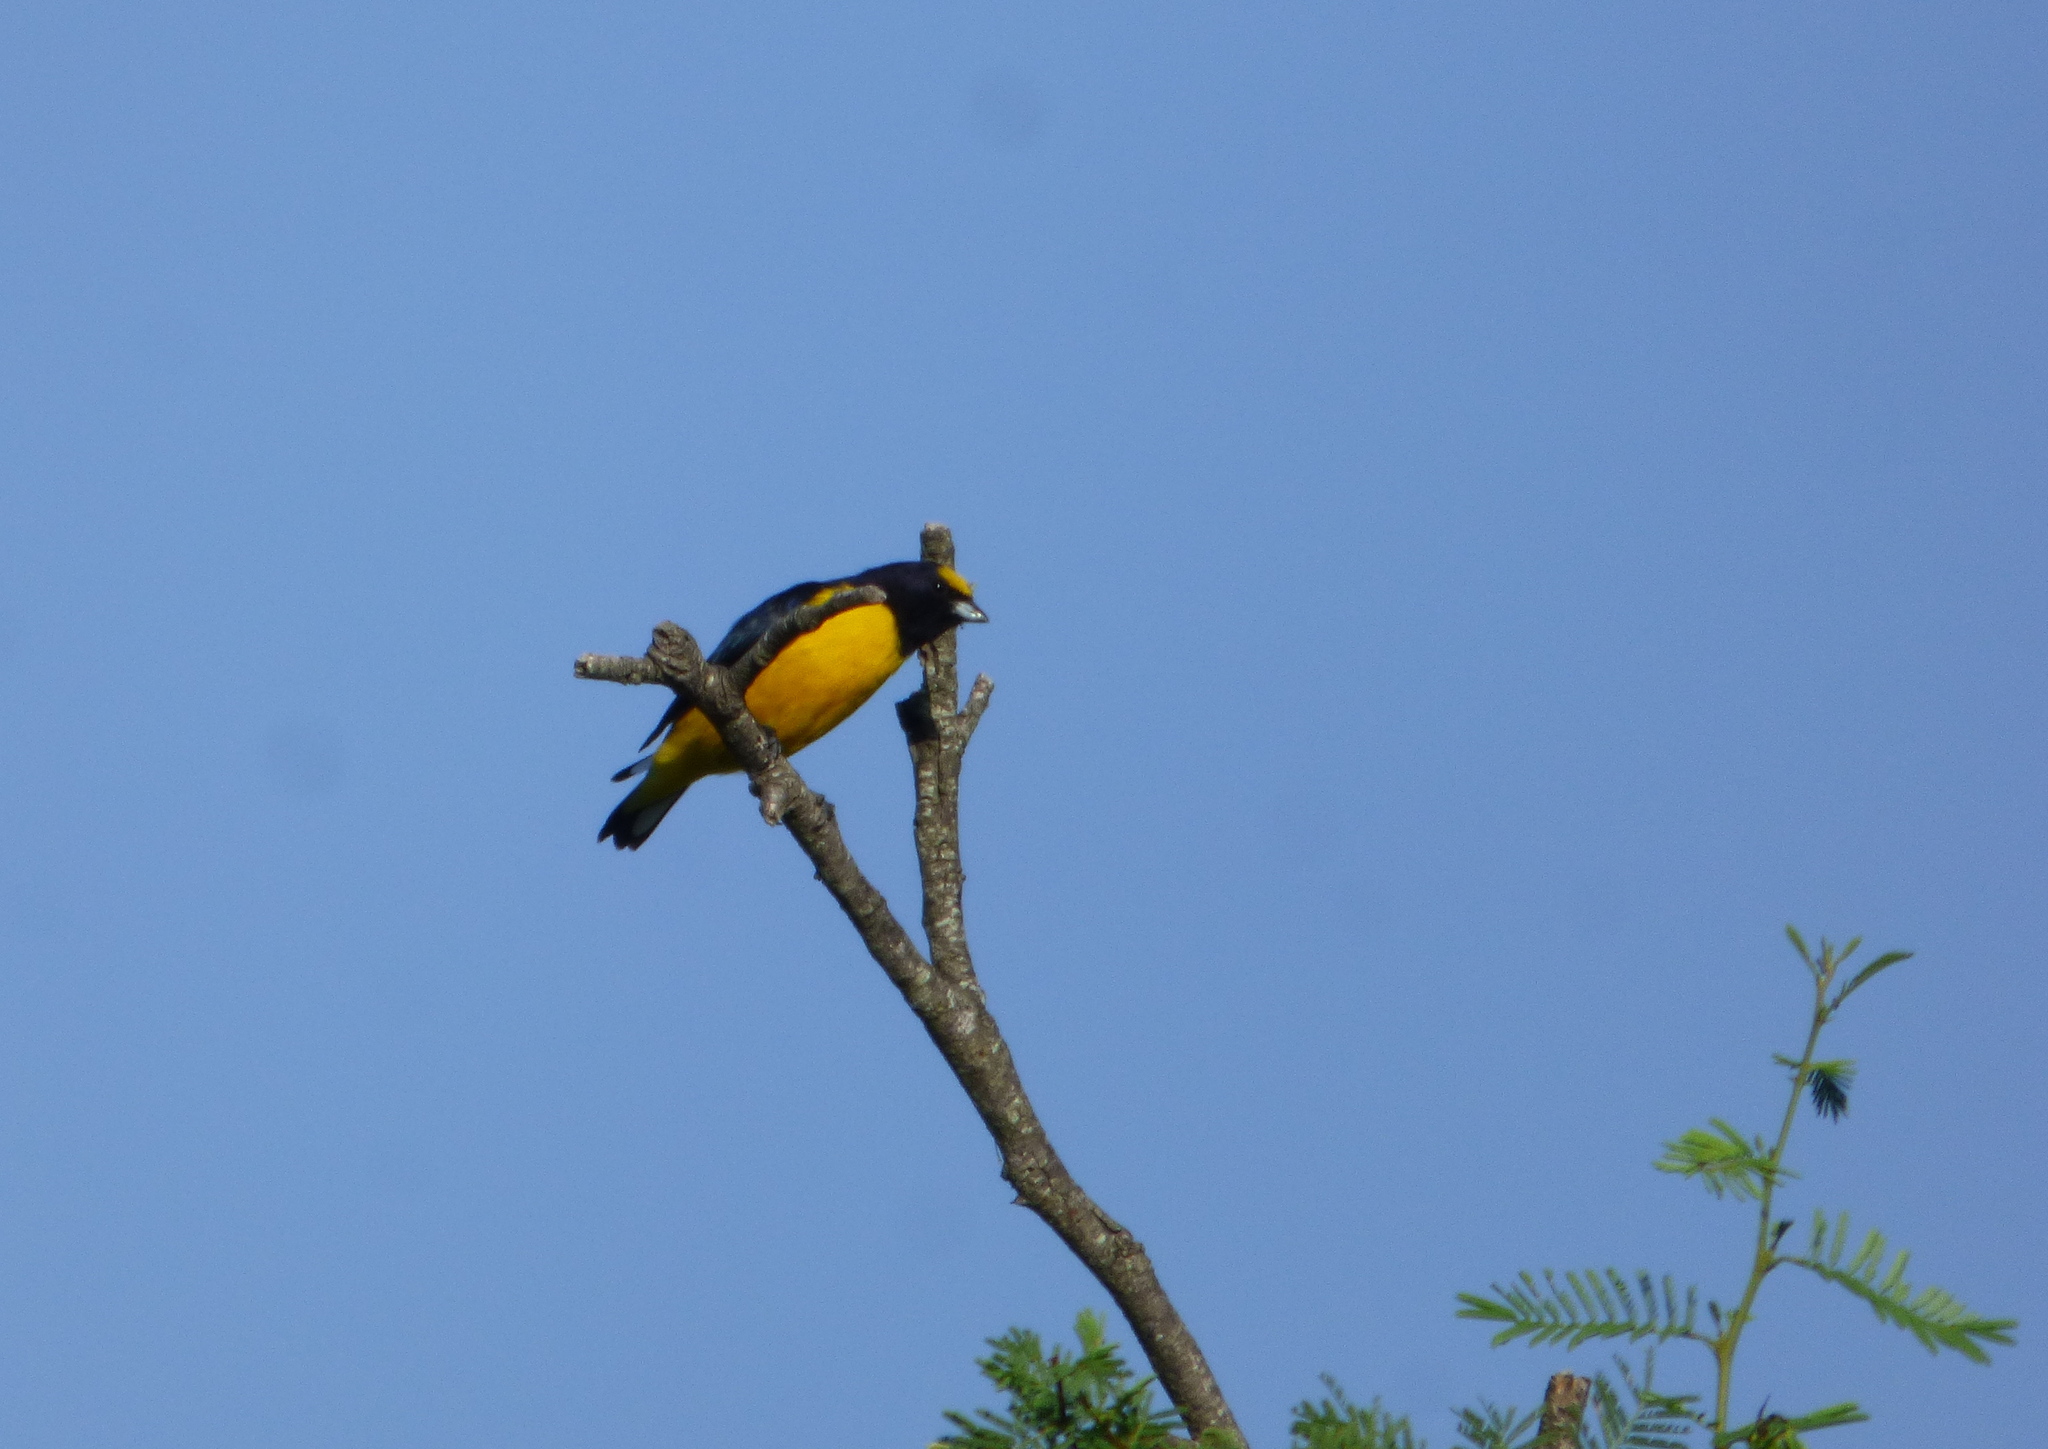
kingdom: Animalia
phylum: Chordata
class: Aves
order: Passeriformes
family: Fringillidae
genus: Euphonia
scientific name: Euphonia chlorotica
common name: Purple-throated euphonia
